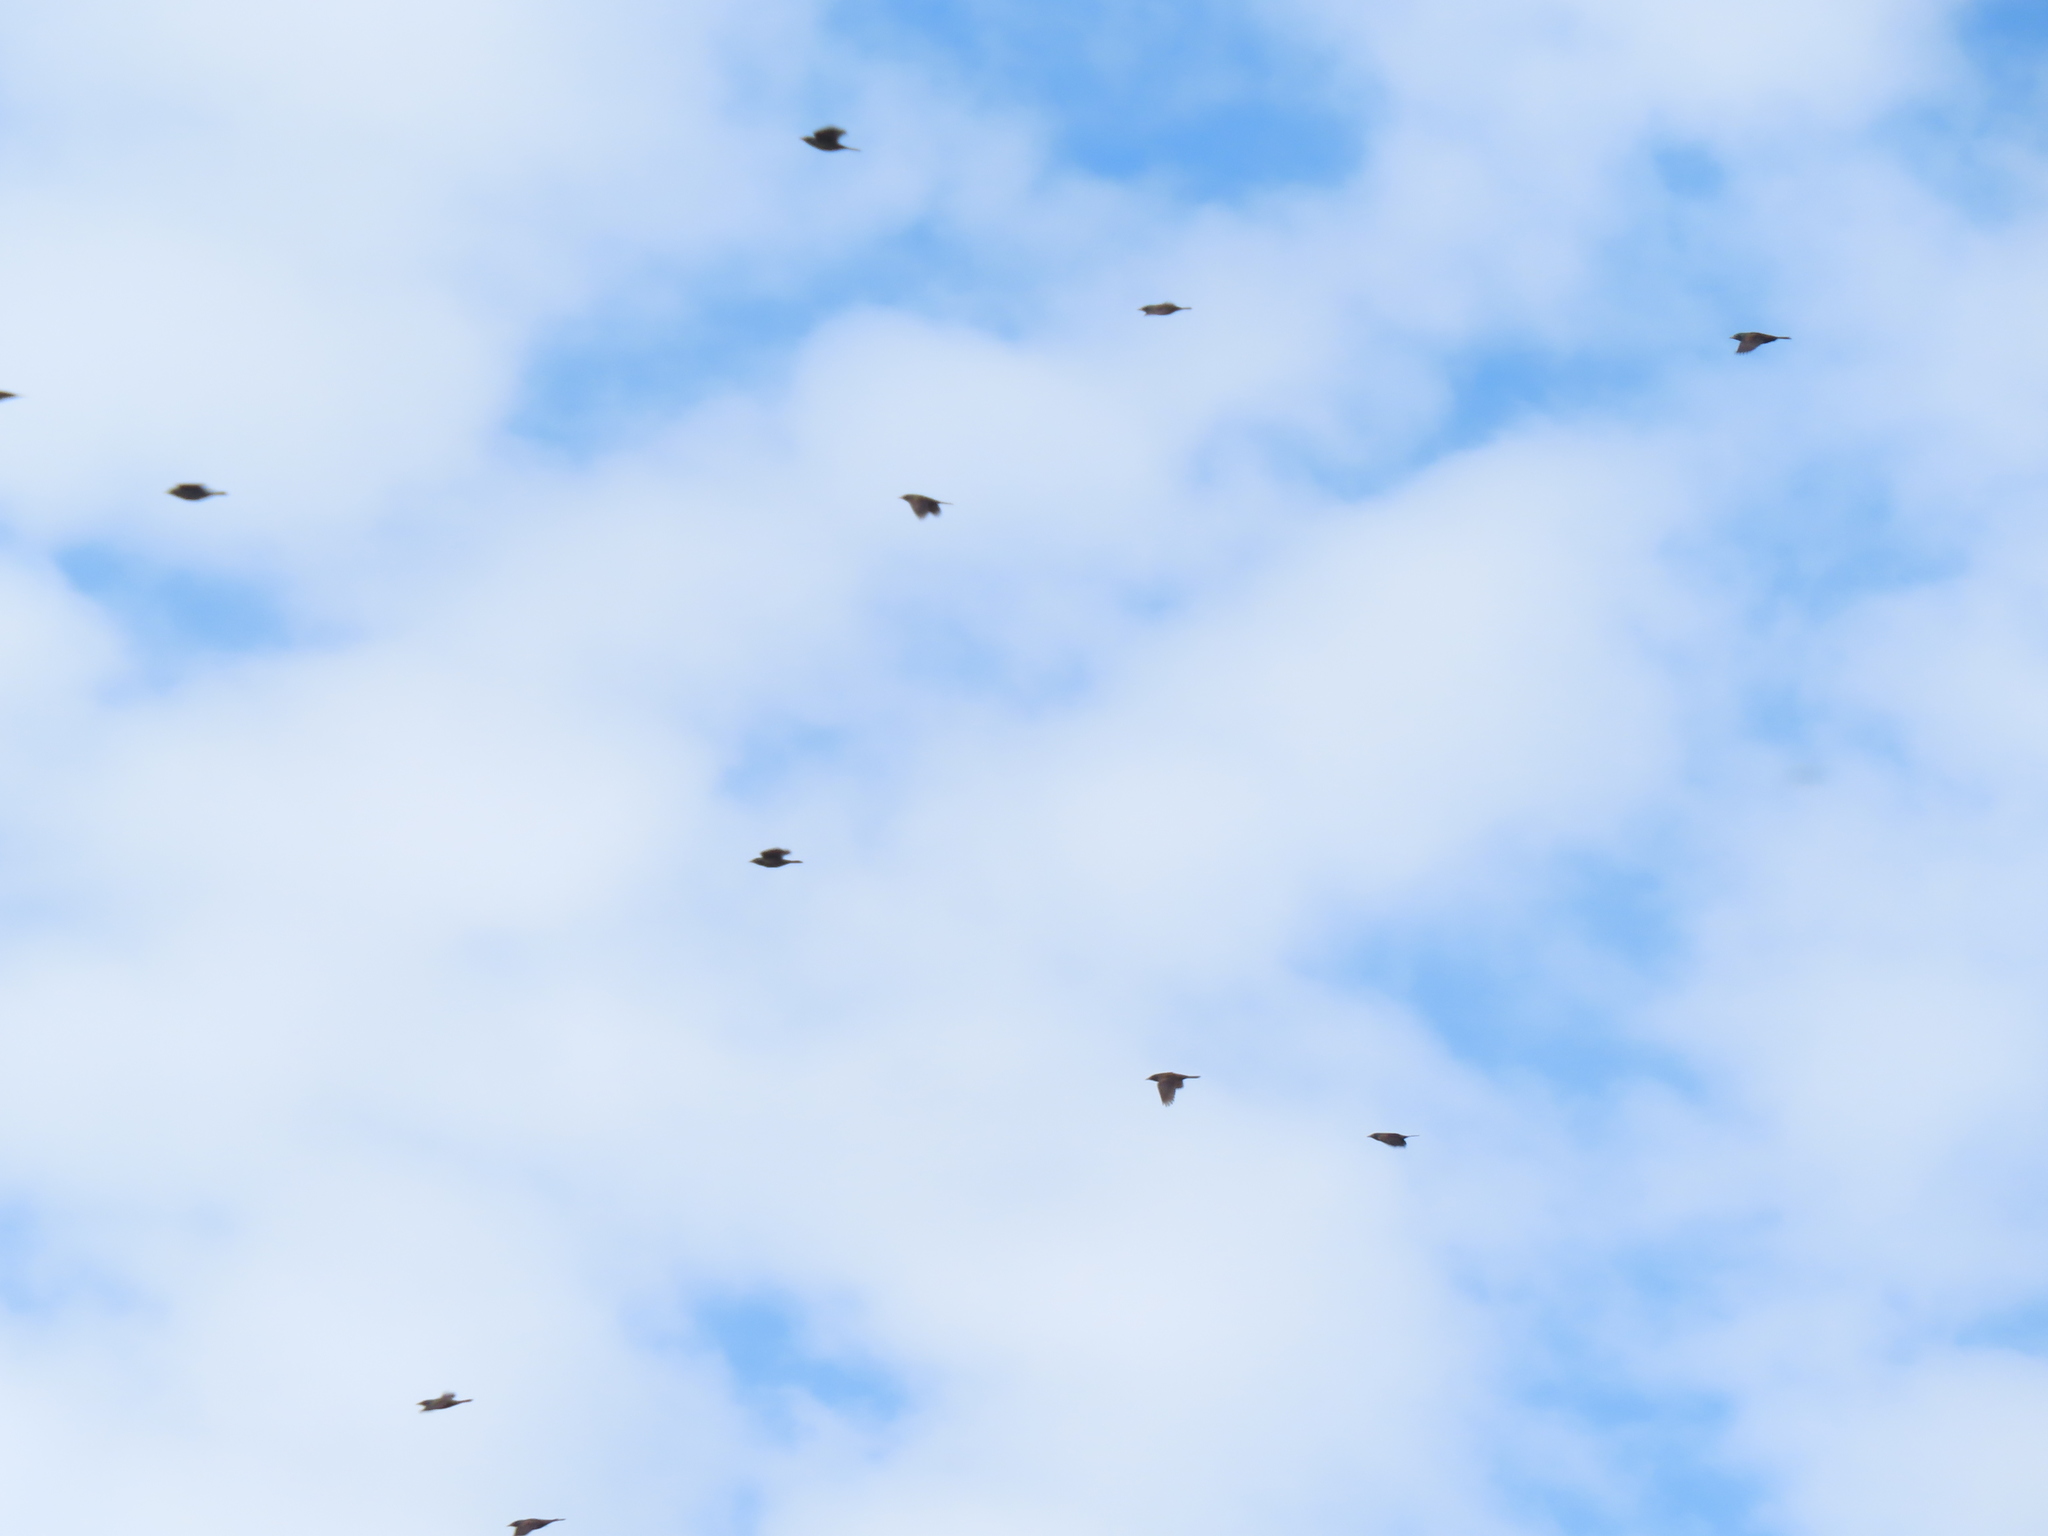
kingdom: Animalia
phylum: Chordata
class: Aves
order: Passeriformes
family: Icteridae
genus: Quiscalus
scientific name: Quiscalus quiscula
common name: Common grackle
